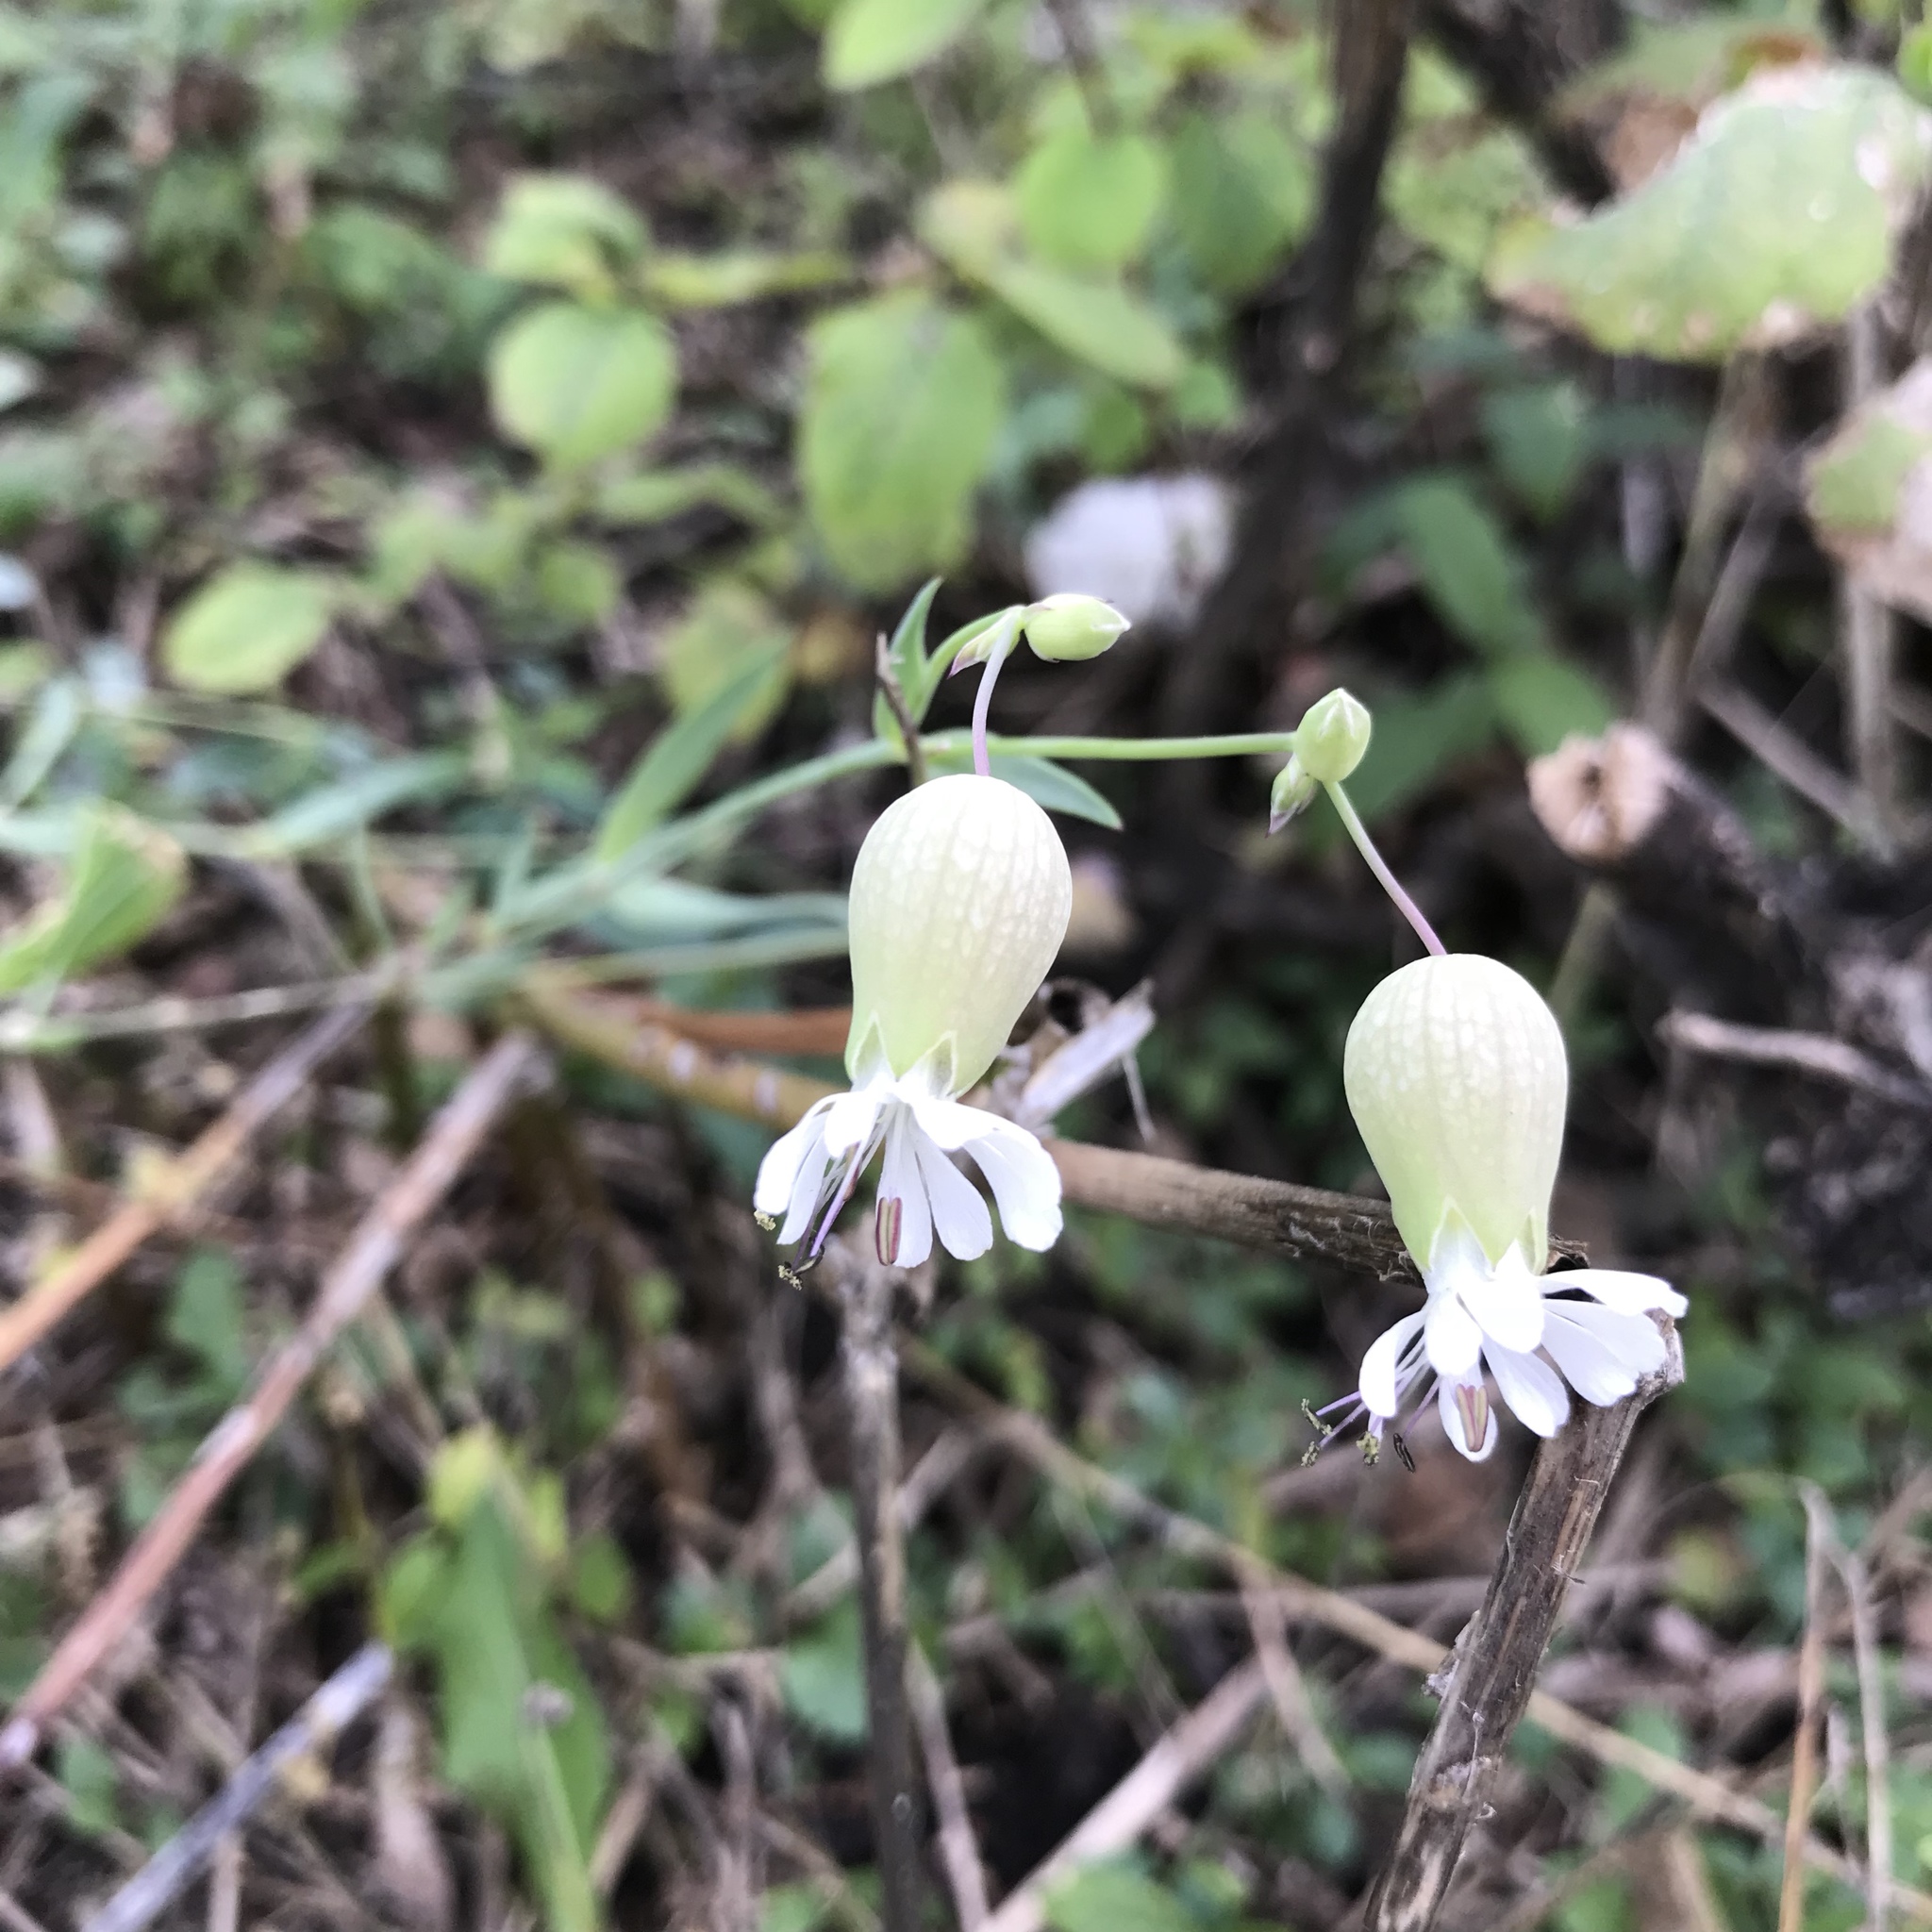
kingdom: Plantae
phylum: Tracheophyta
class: Magnoliopsida
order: Caryophyllales
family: Caryophyllaceae
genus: Silene
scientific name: Silene vulgaris
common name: Bladder campion
